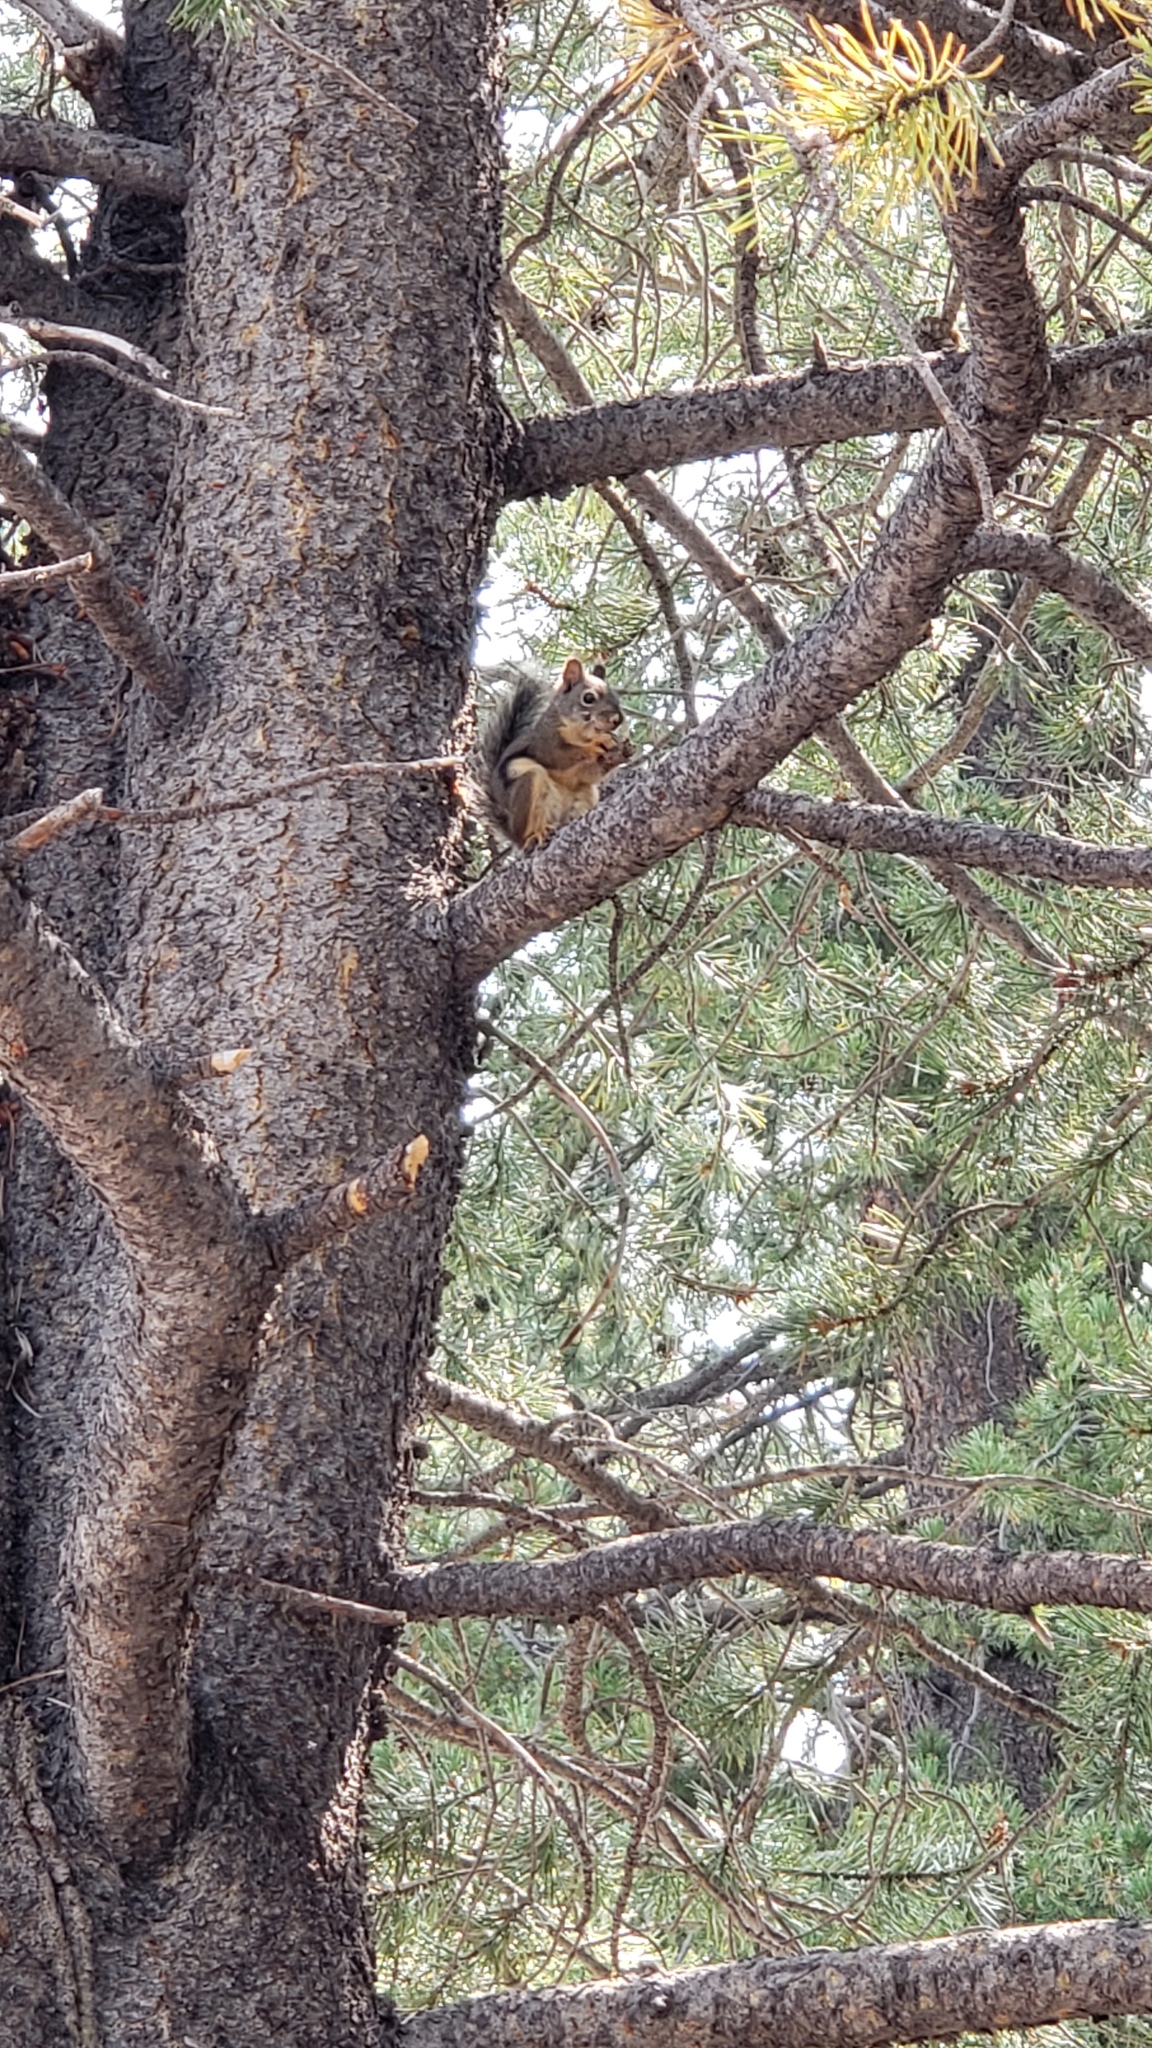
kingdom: Animalia
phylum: Chordata
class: Mammalia
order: Rodentia
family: Sciuridae
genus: Tamiasciurus
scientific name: Tamiasciurus douglasii
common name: Douglas's squirrel
